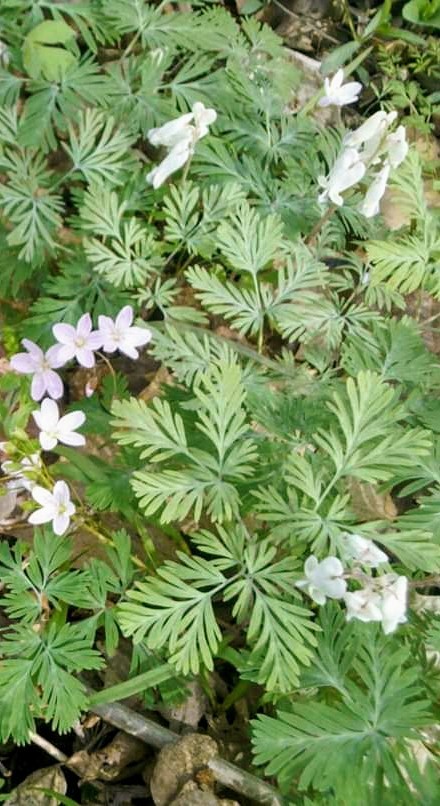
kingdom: Plantae
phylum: Tracheophyta
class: Magnoliopsida
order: Ranunculales
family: Papaveraceae
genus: Dicentra
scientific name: Dicentra canadensis
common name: Squirrel-corn
